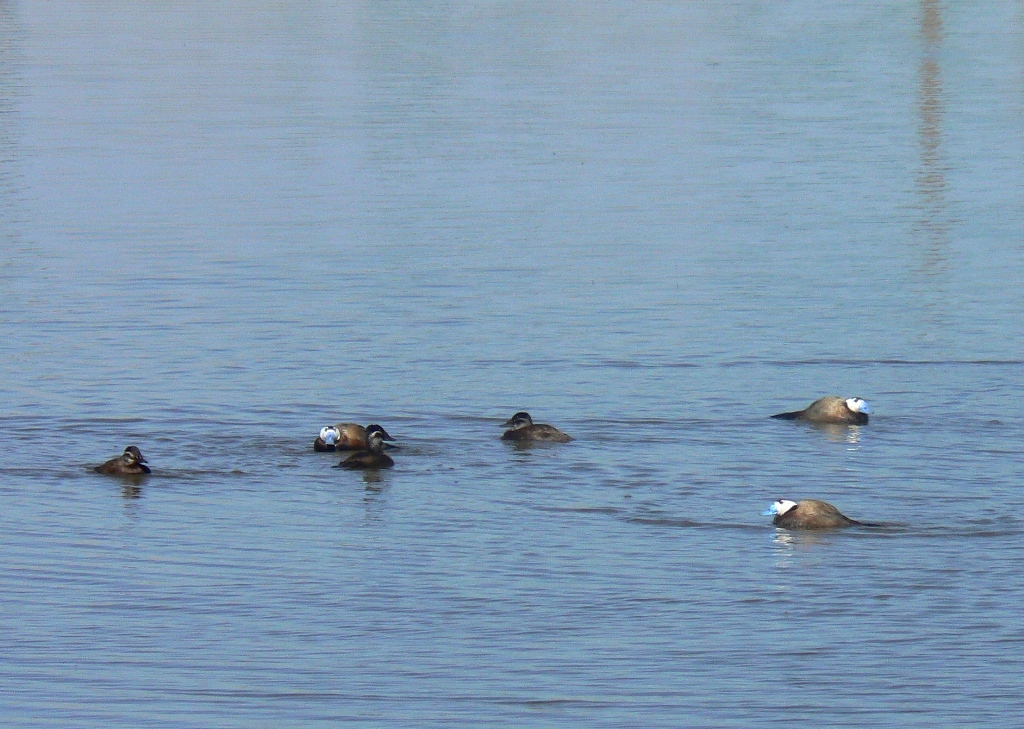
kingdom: Animalia
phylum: Chordata
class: Aves
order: Anseriformes
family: Anatidae
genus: Oxyura
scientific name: Oxyura leucocephala
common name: White-headed duck
